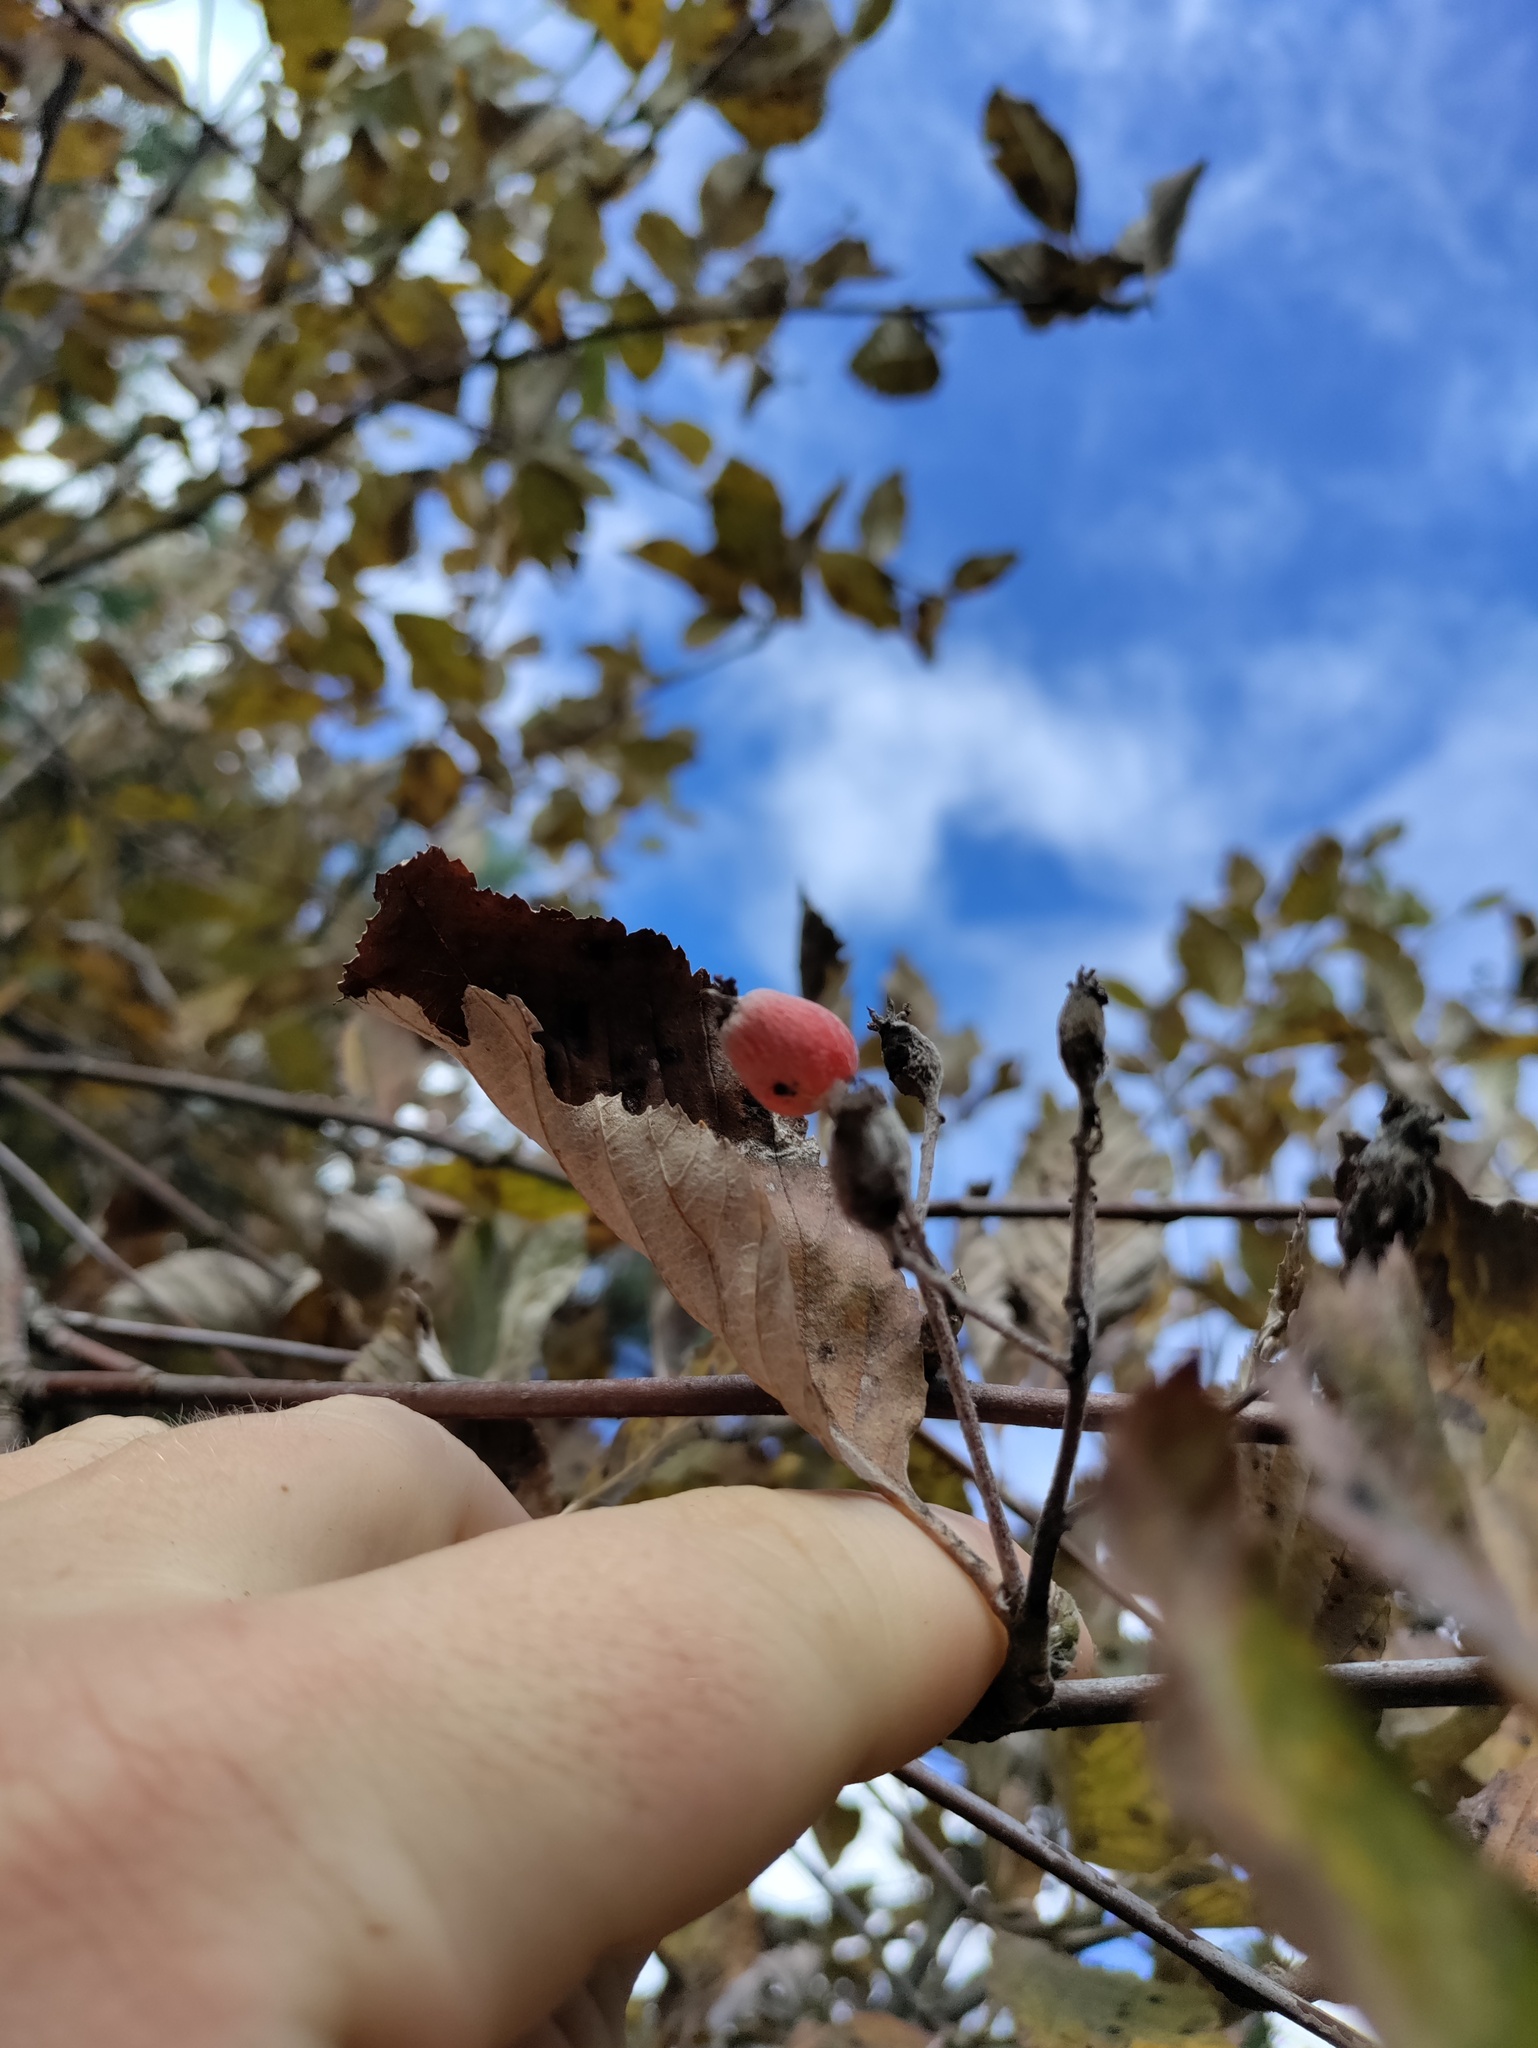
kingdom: Plantae
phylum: Tracheophyta
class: Magnoliopsida
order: Rosales
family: Rosaceae
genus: Aria
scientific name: Aria edulis
